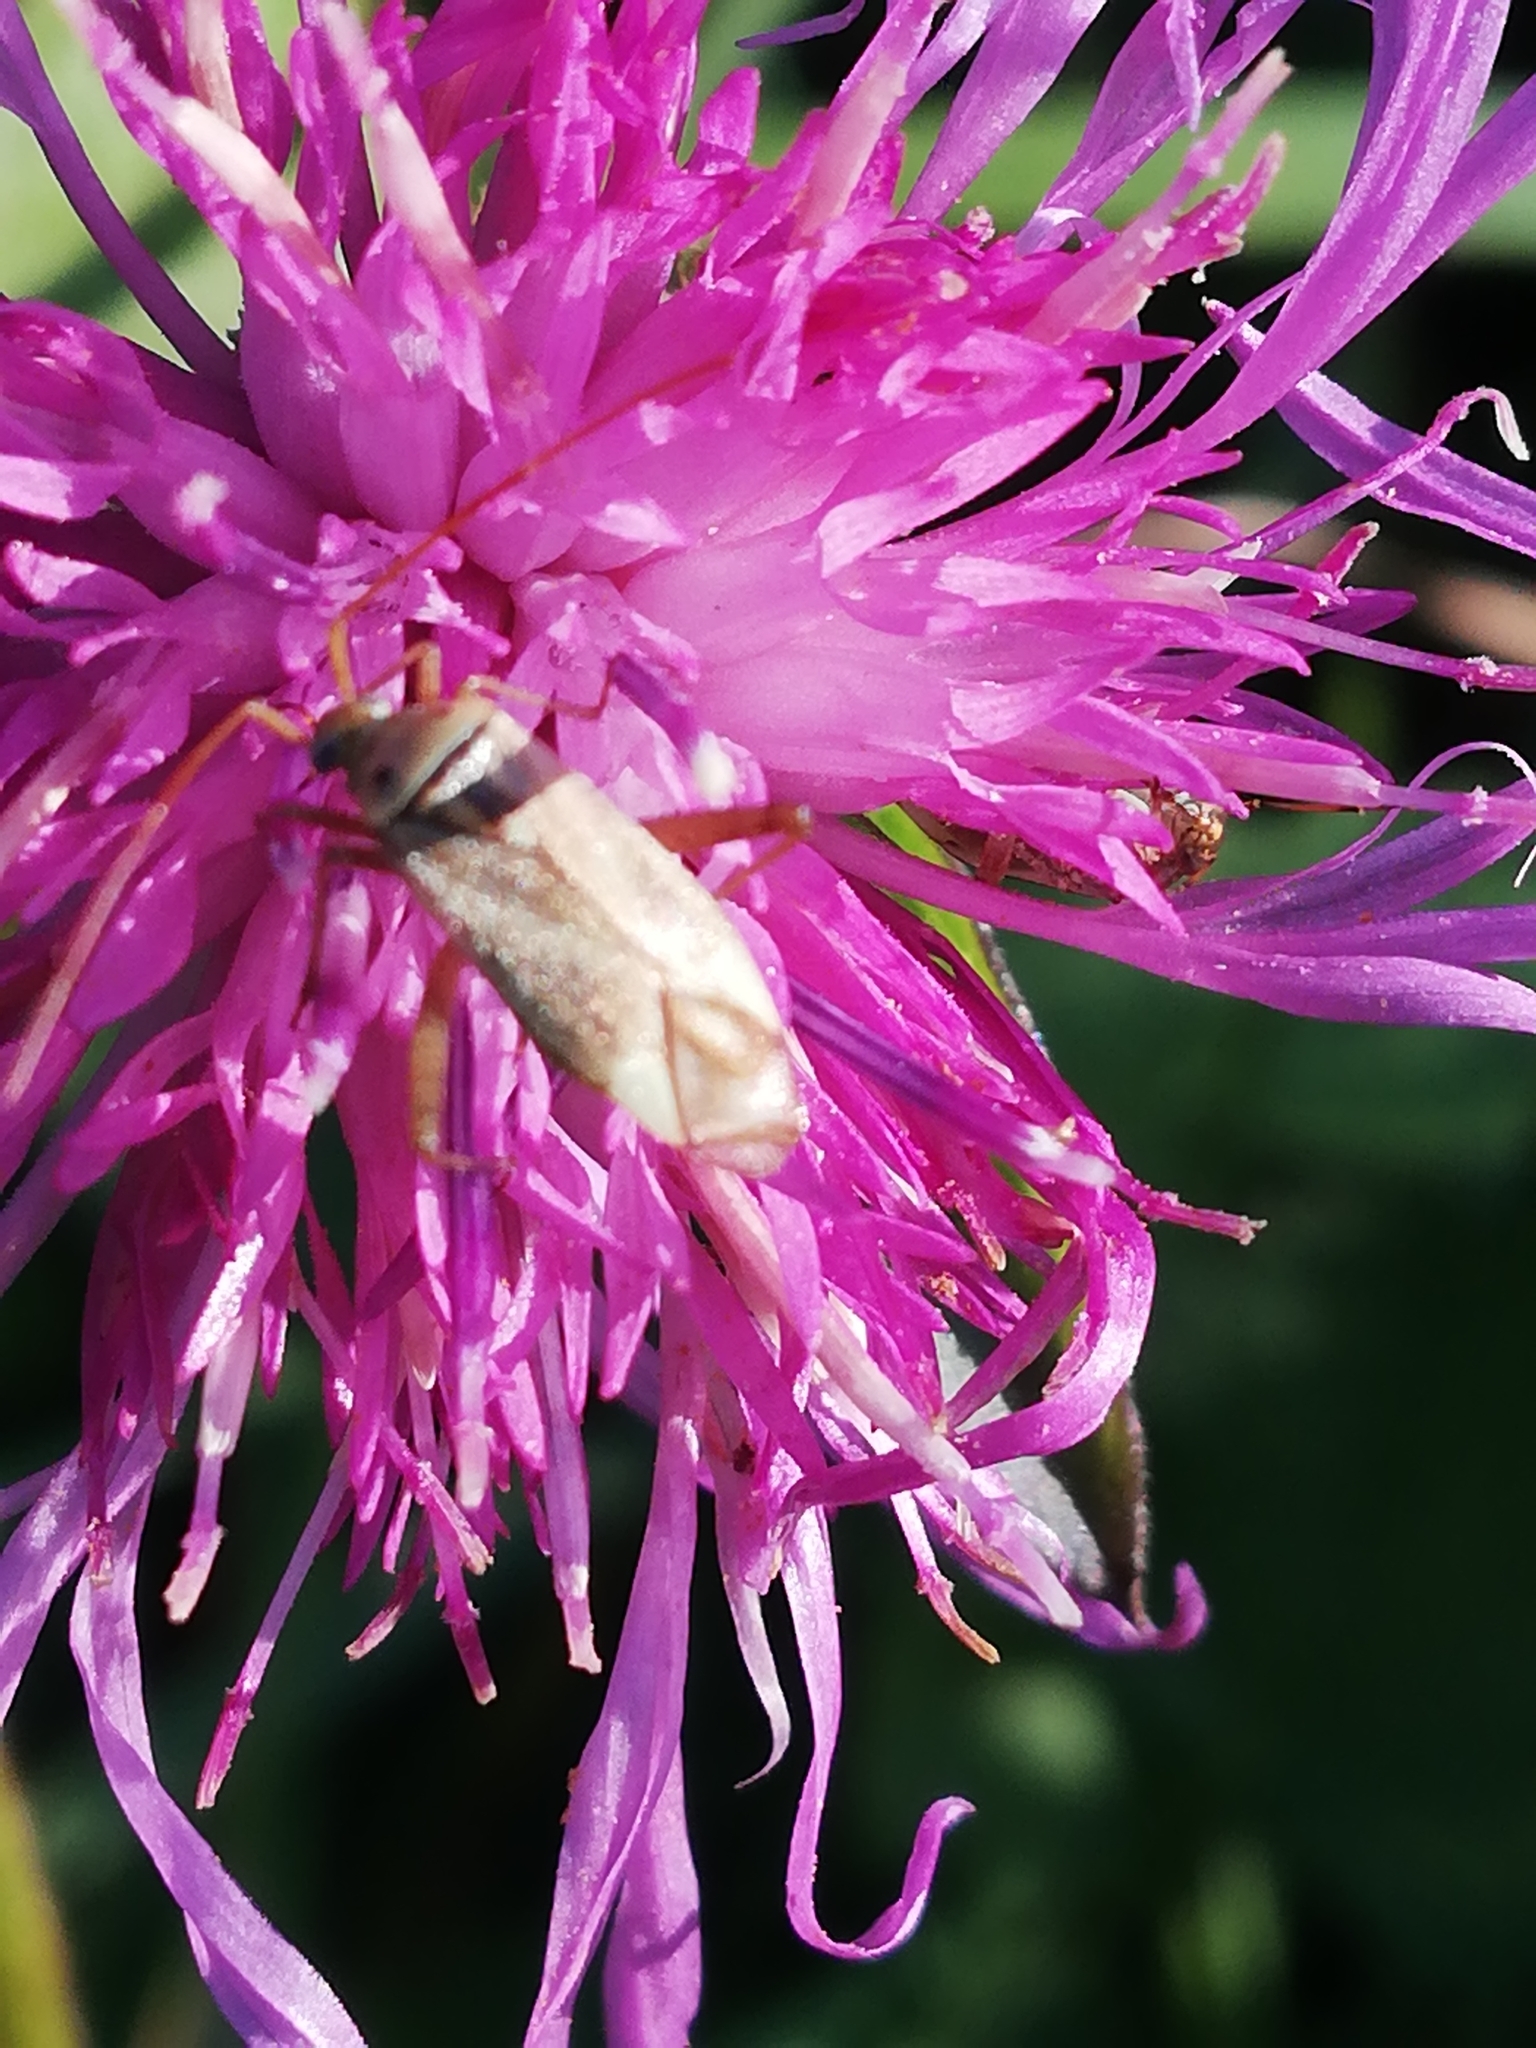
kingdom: Animalia
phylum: Arthropoda
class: Insecta
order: Hemiptera
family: Miridae
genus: Adelphocoris
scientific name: Adelphocoris lineolatus
